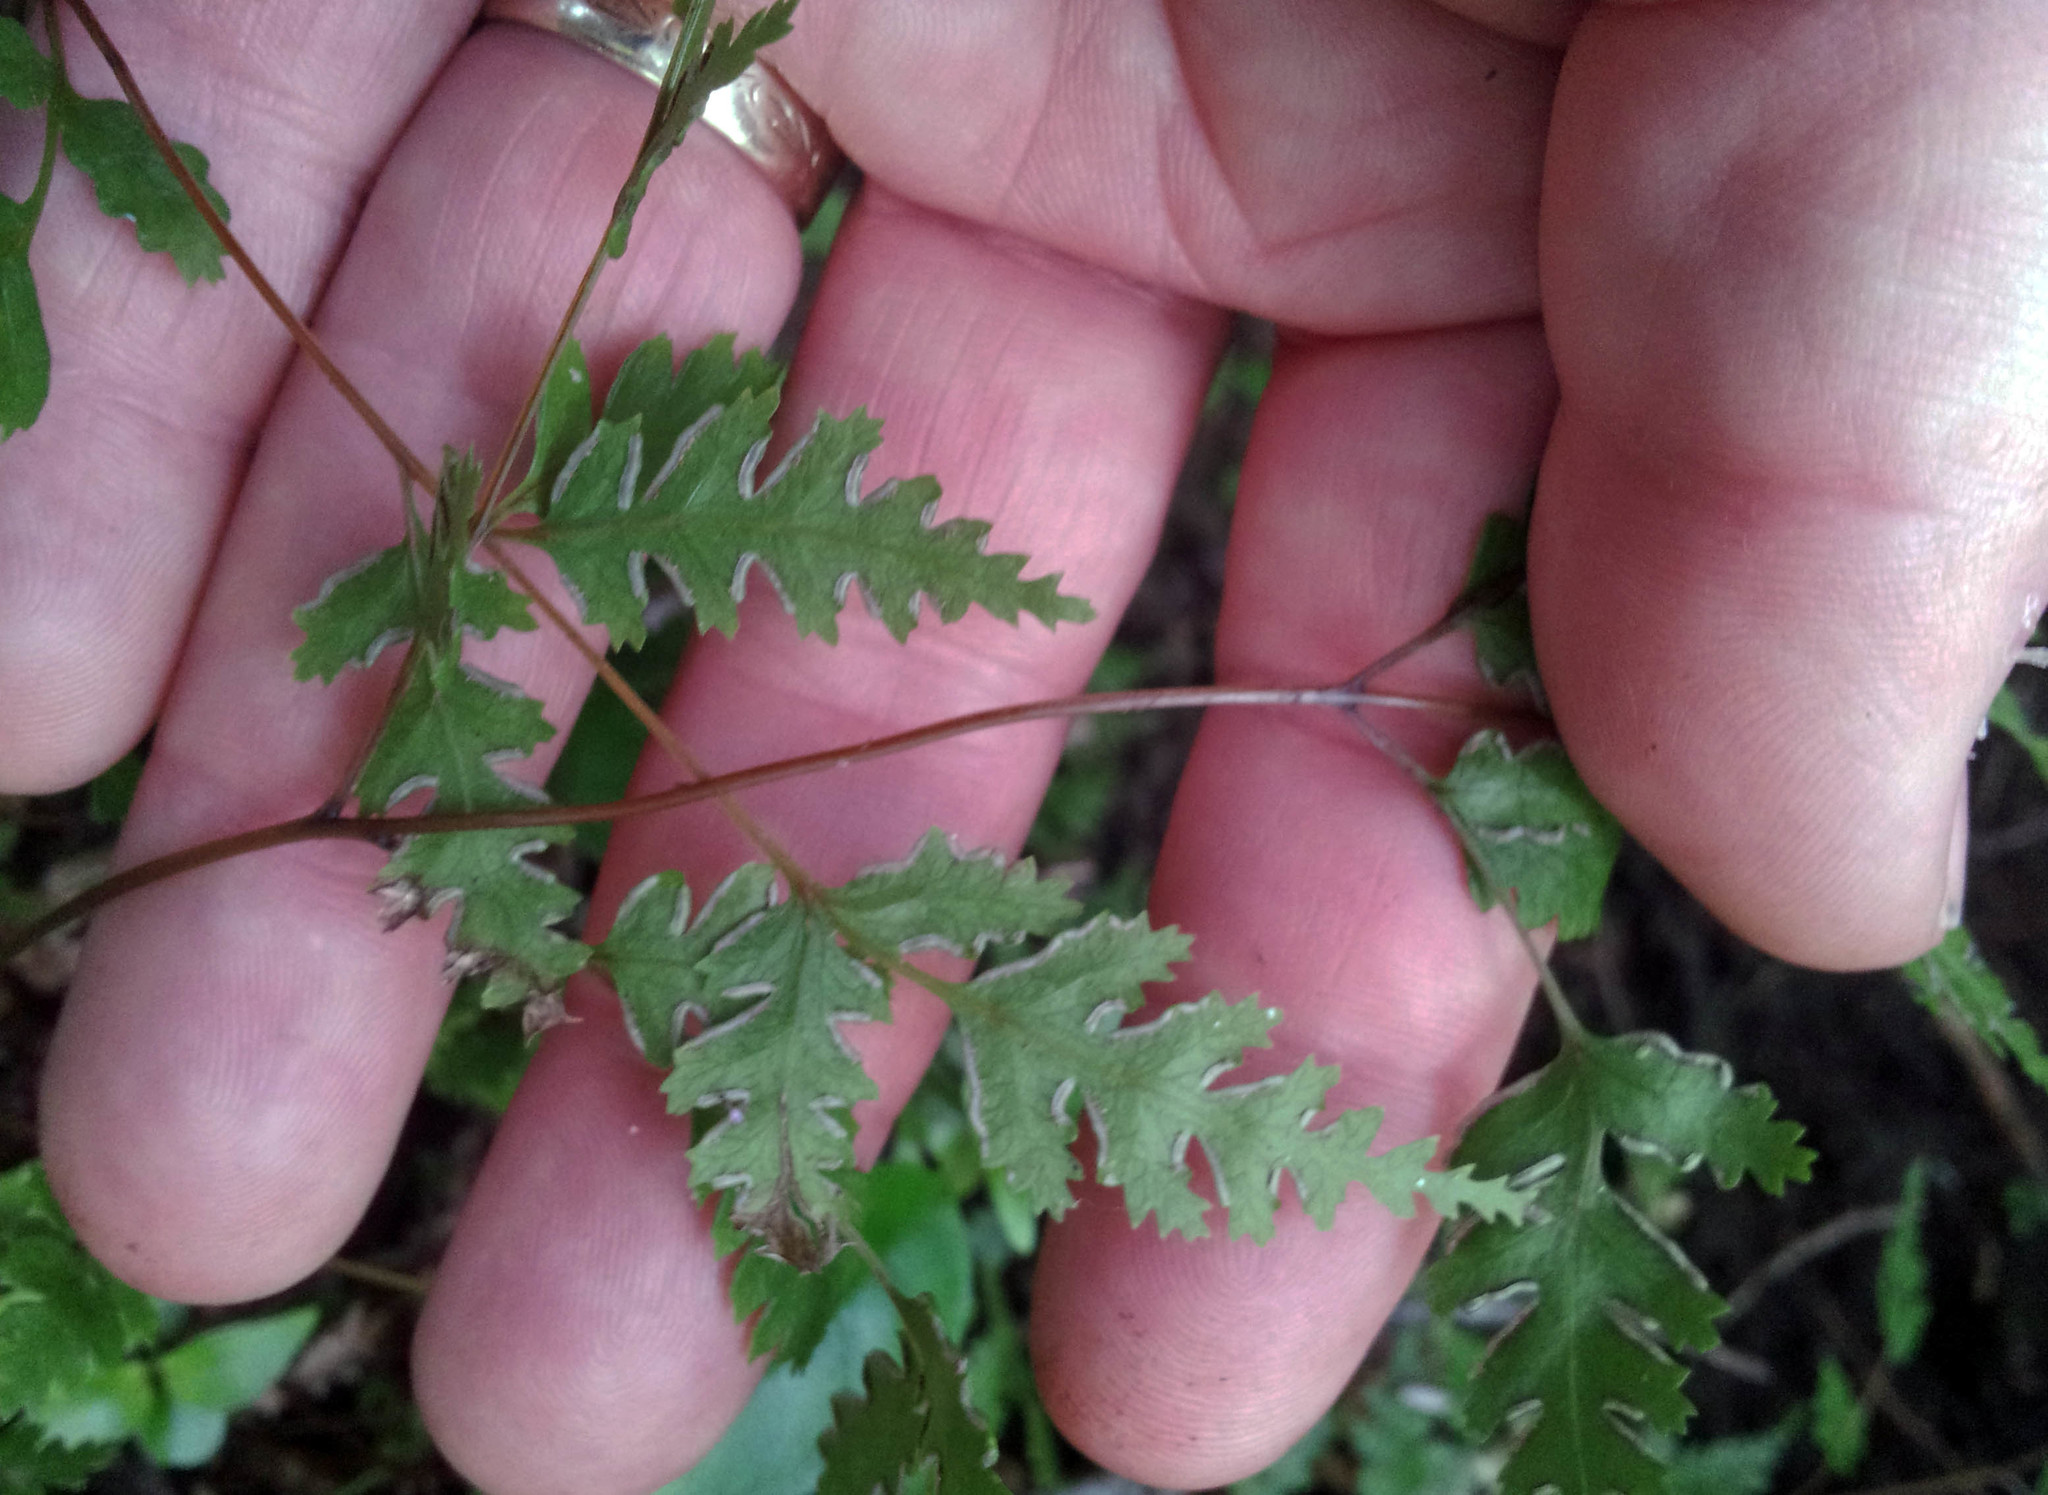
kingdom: Plantae
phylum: Tracheophyta
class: Polypodiopsida
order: Polypodiales
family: Pteridaceae
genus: Pteris
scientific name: Pteris saxatilis
